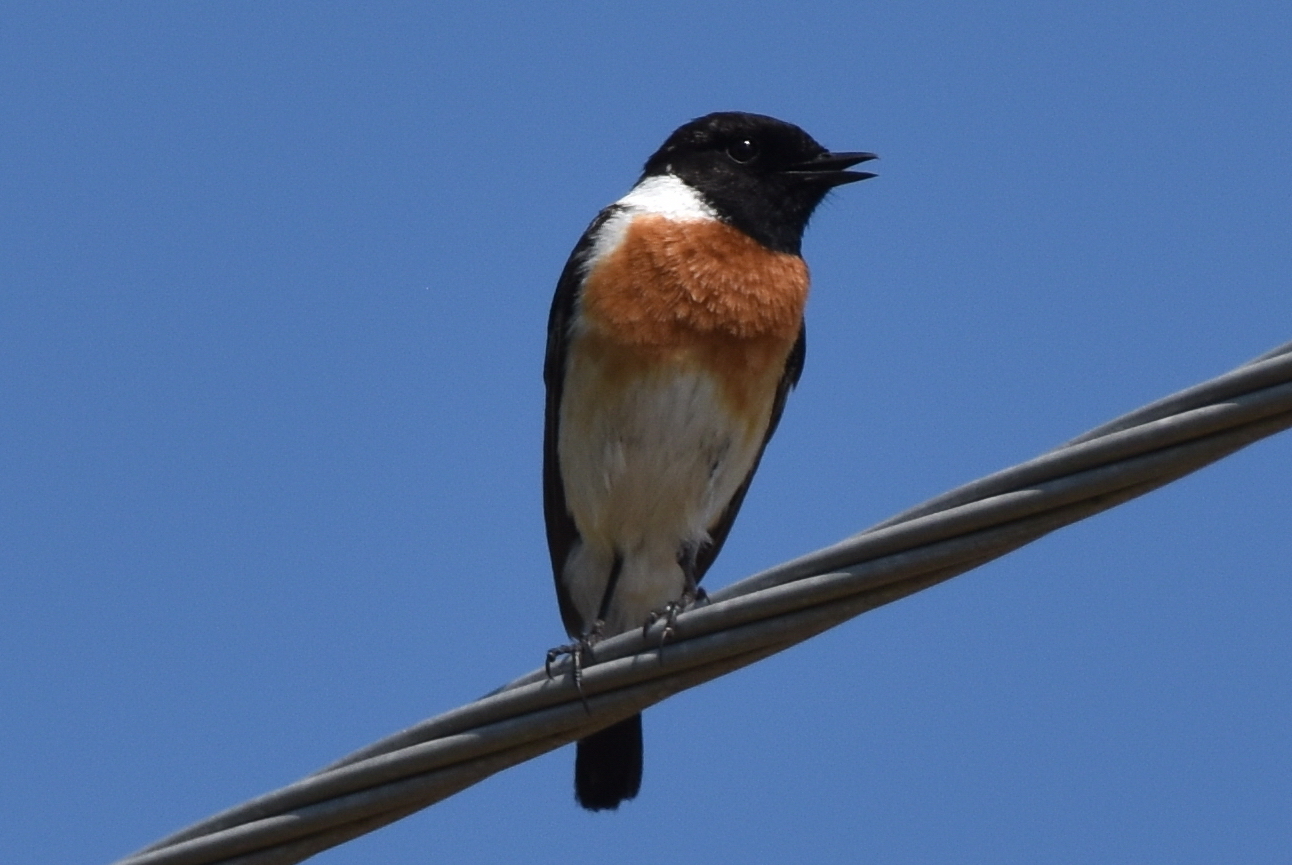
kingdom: Animalia
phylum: Chordata
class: Aves
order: Passeriformes
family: Muscicapidae
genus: Saxicola
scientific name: Saxicola maurus
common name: Siberian stonechat
